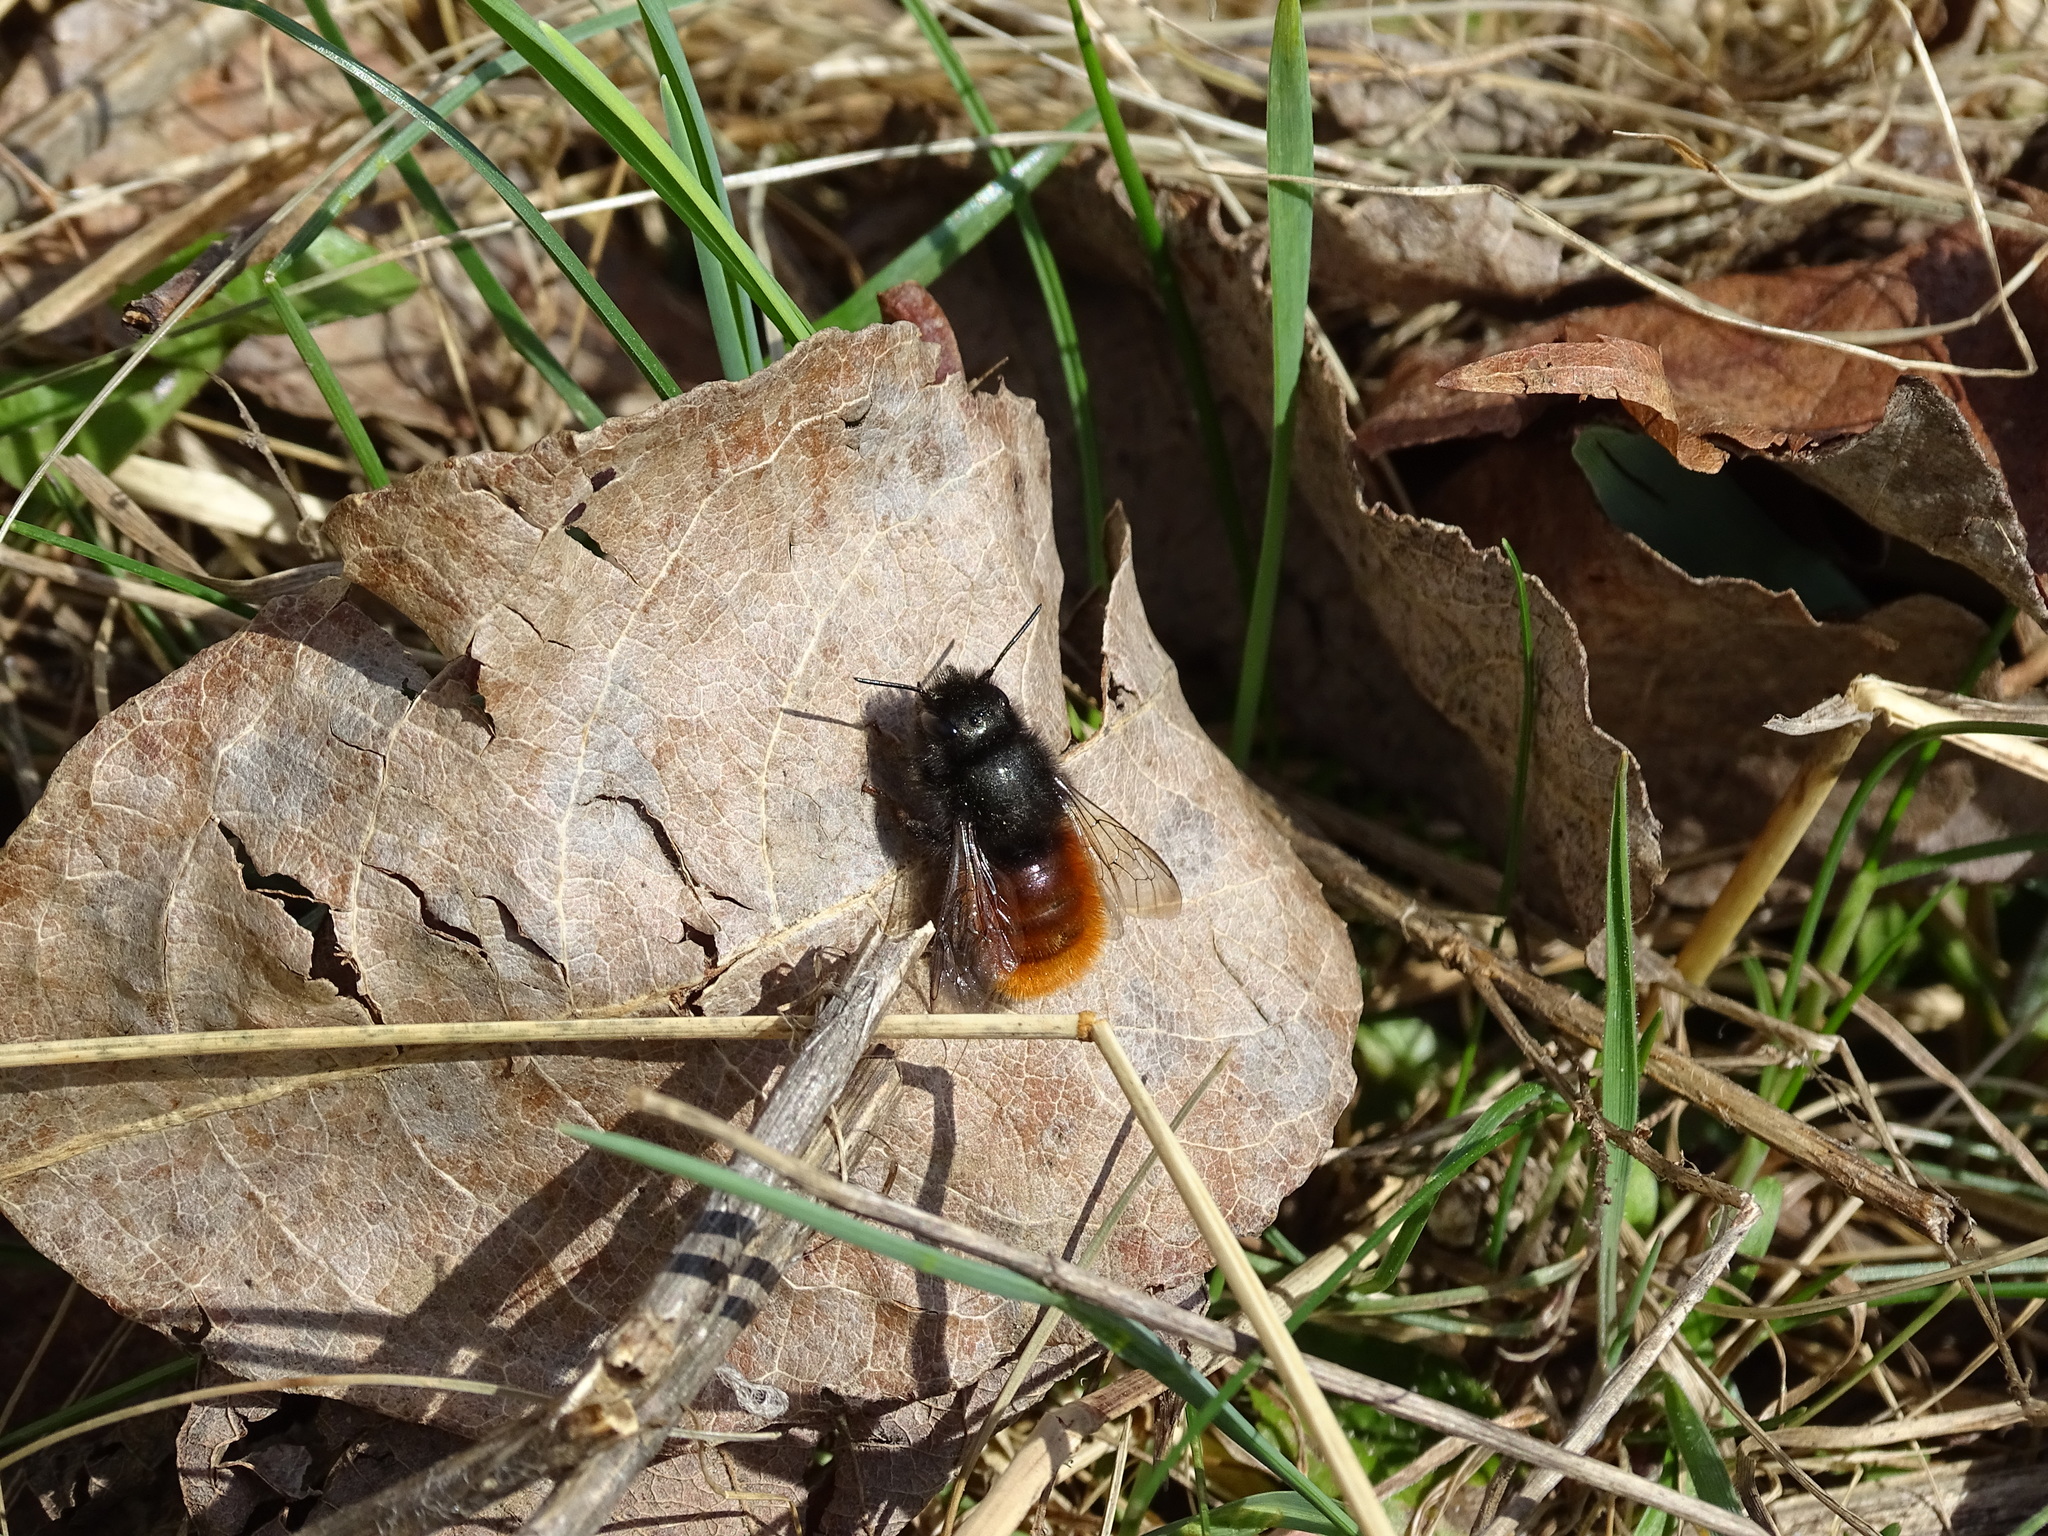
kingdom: Animalia
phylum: Arthropoda
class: Insecta
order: Hymenoptera
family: Megachilidae
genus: Osmia
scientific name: Osmia cornuta
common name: Mason bee
